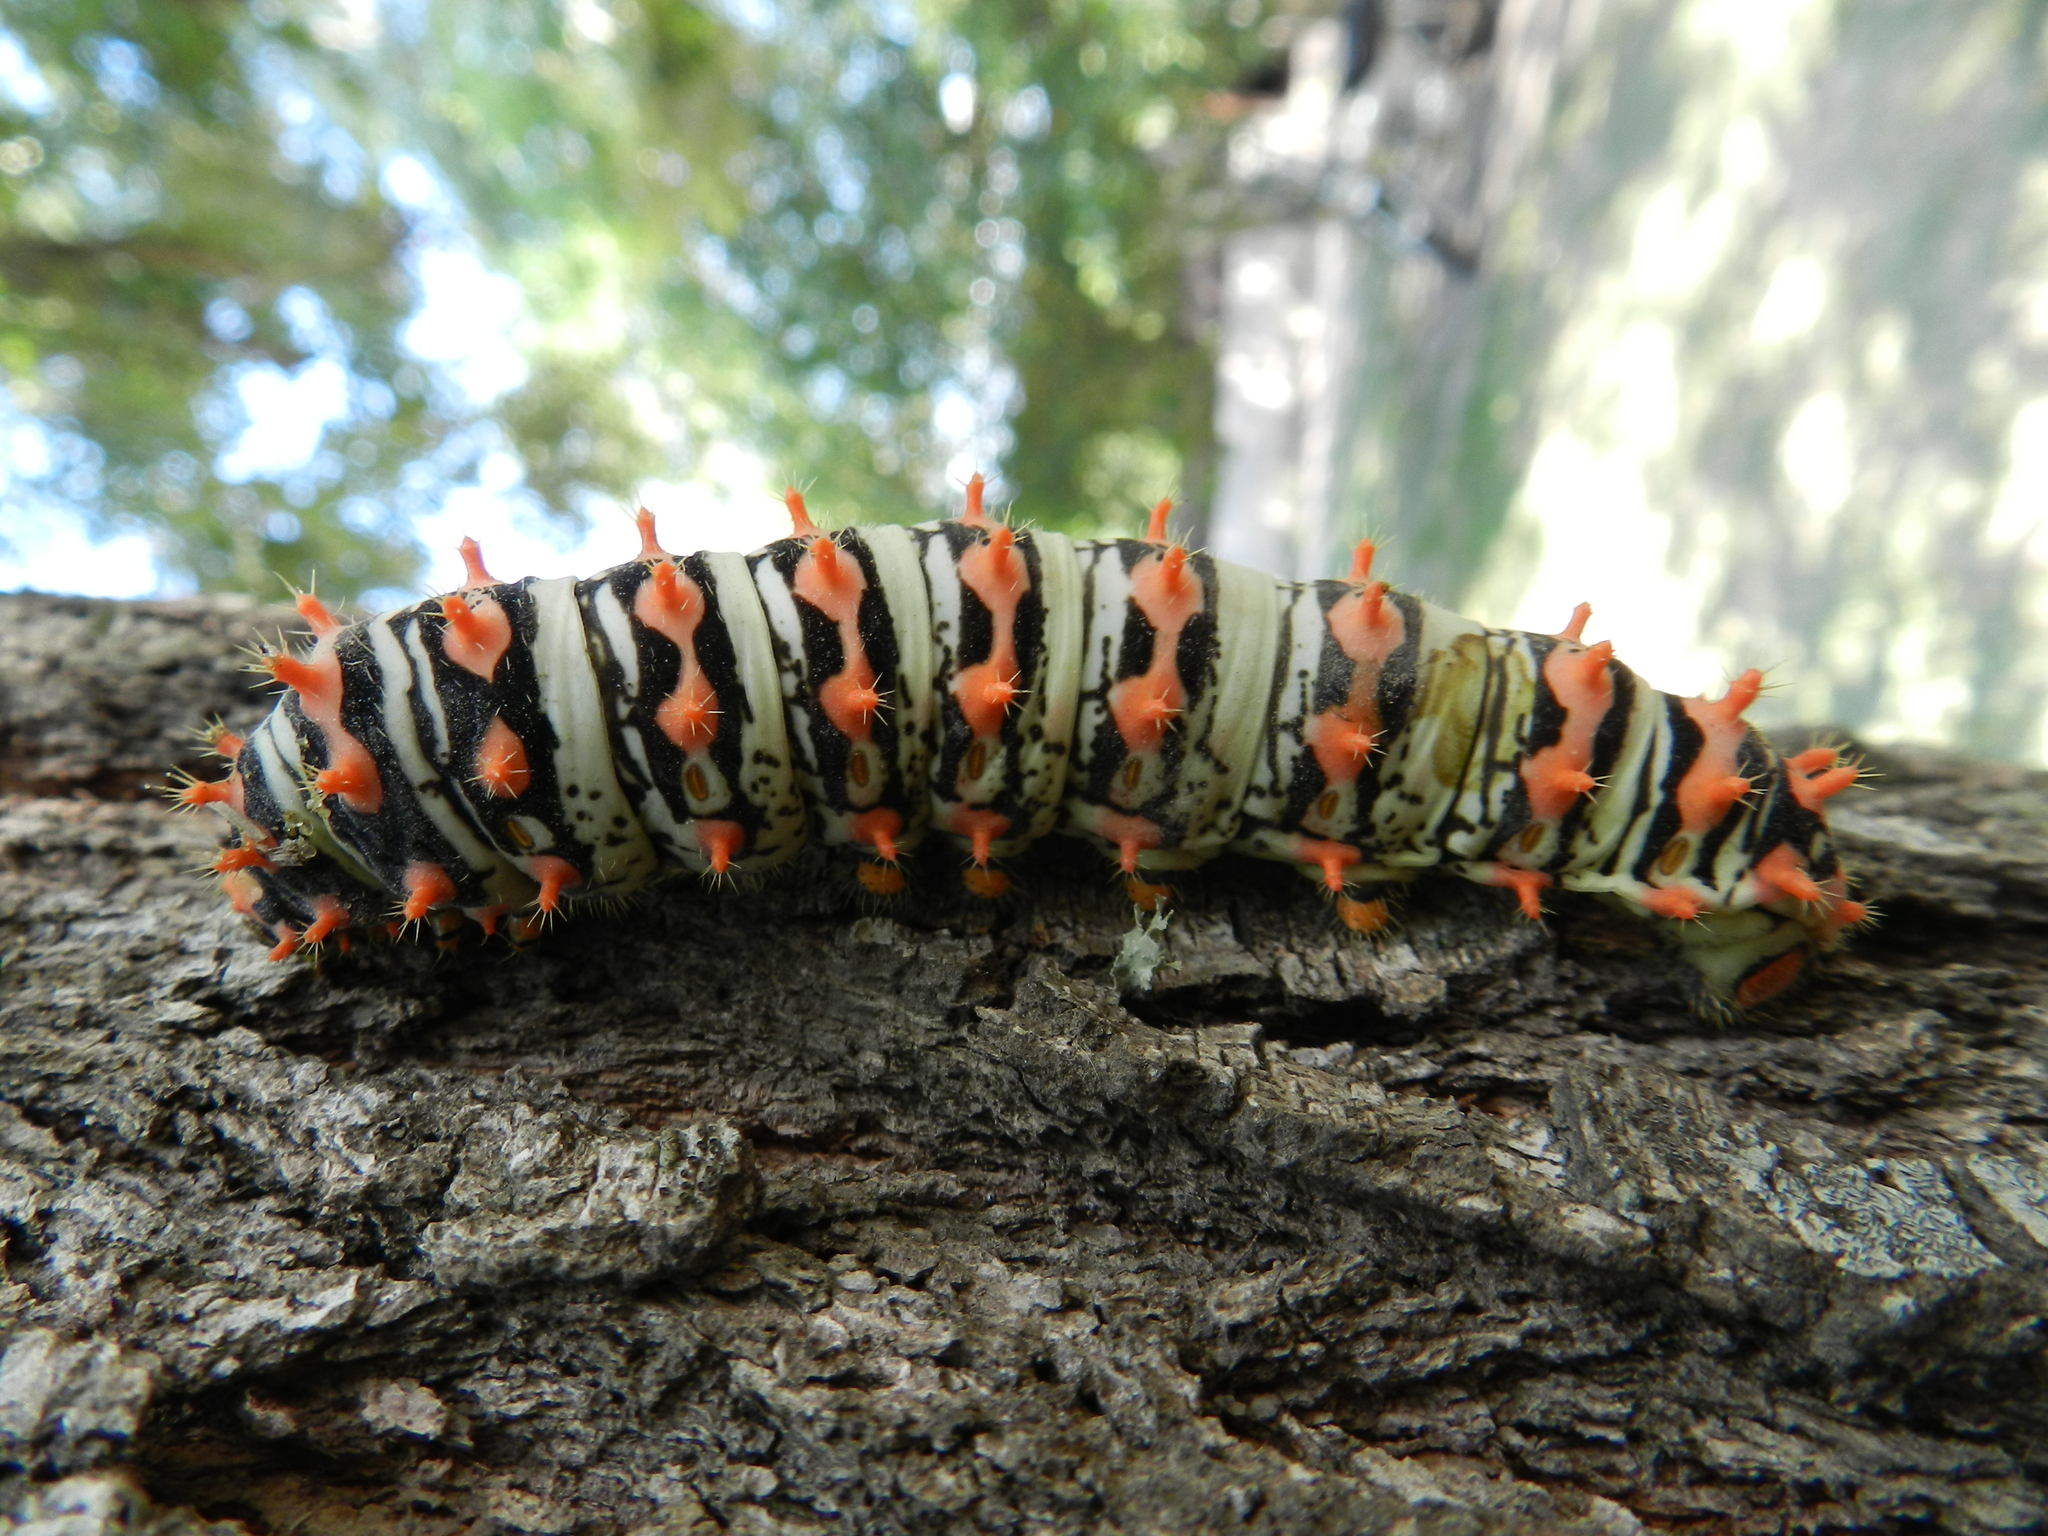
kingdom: Animalia
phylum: Arthropoda
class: Insecta
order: Lepidoptera
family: Saturniidae
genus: Rothschildia
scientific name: Rothschildia hesperus
